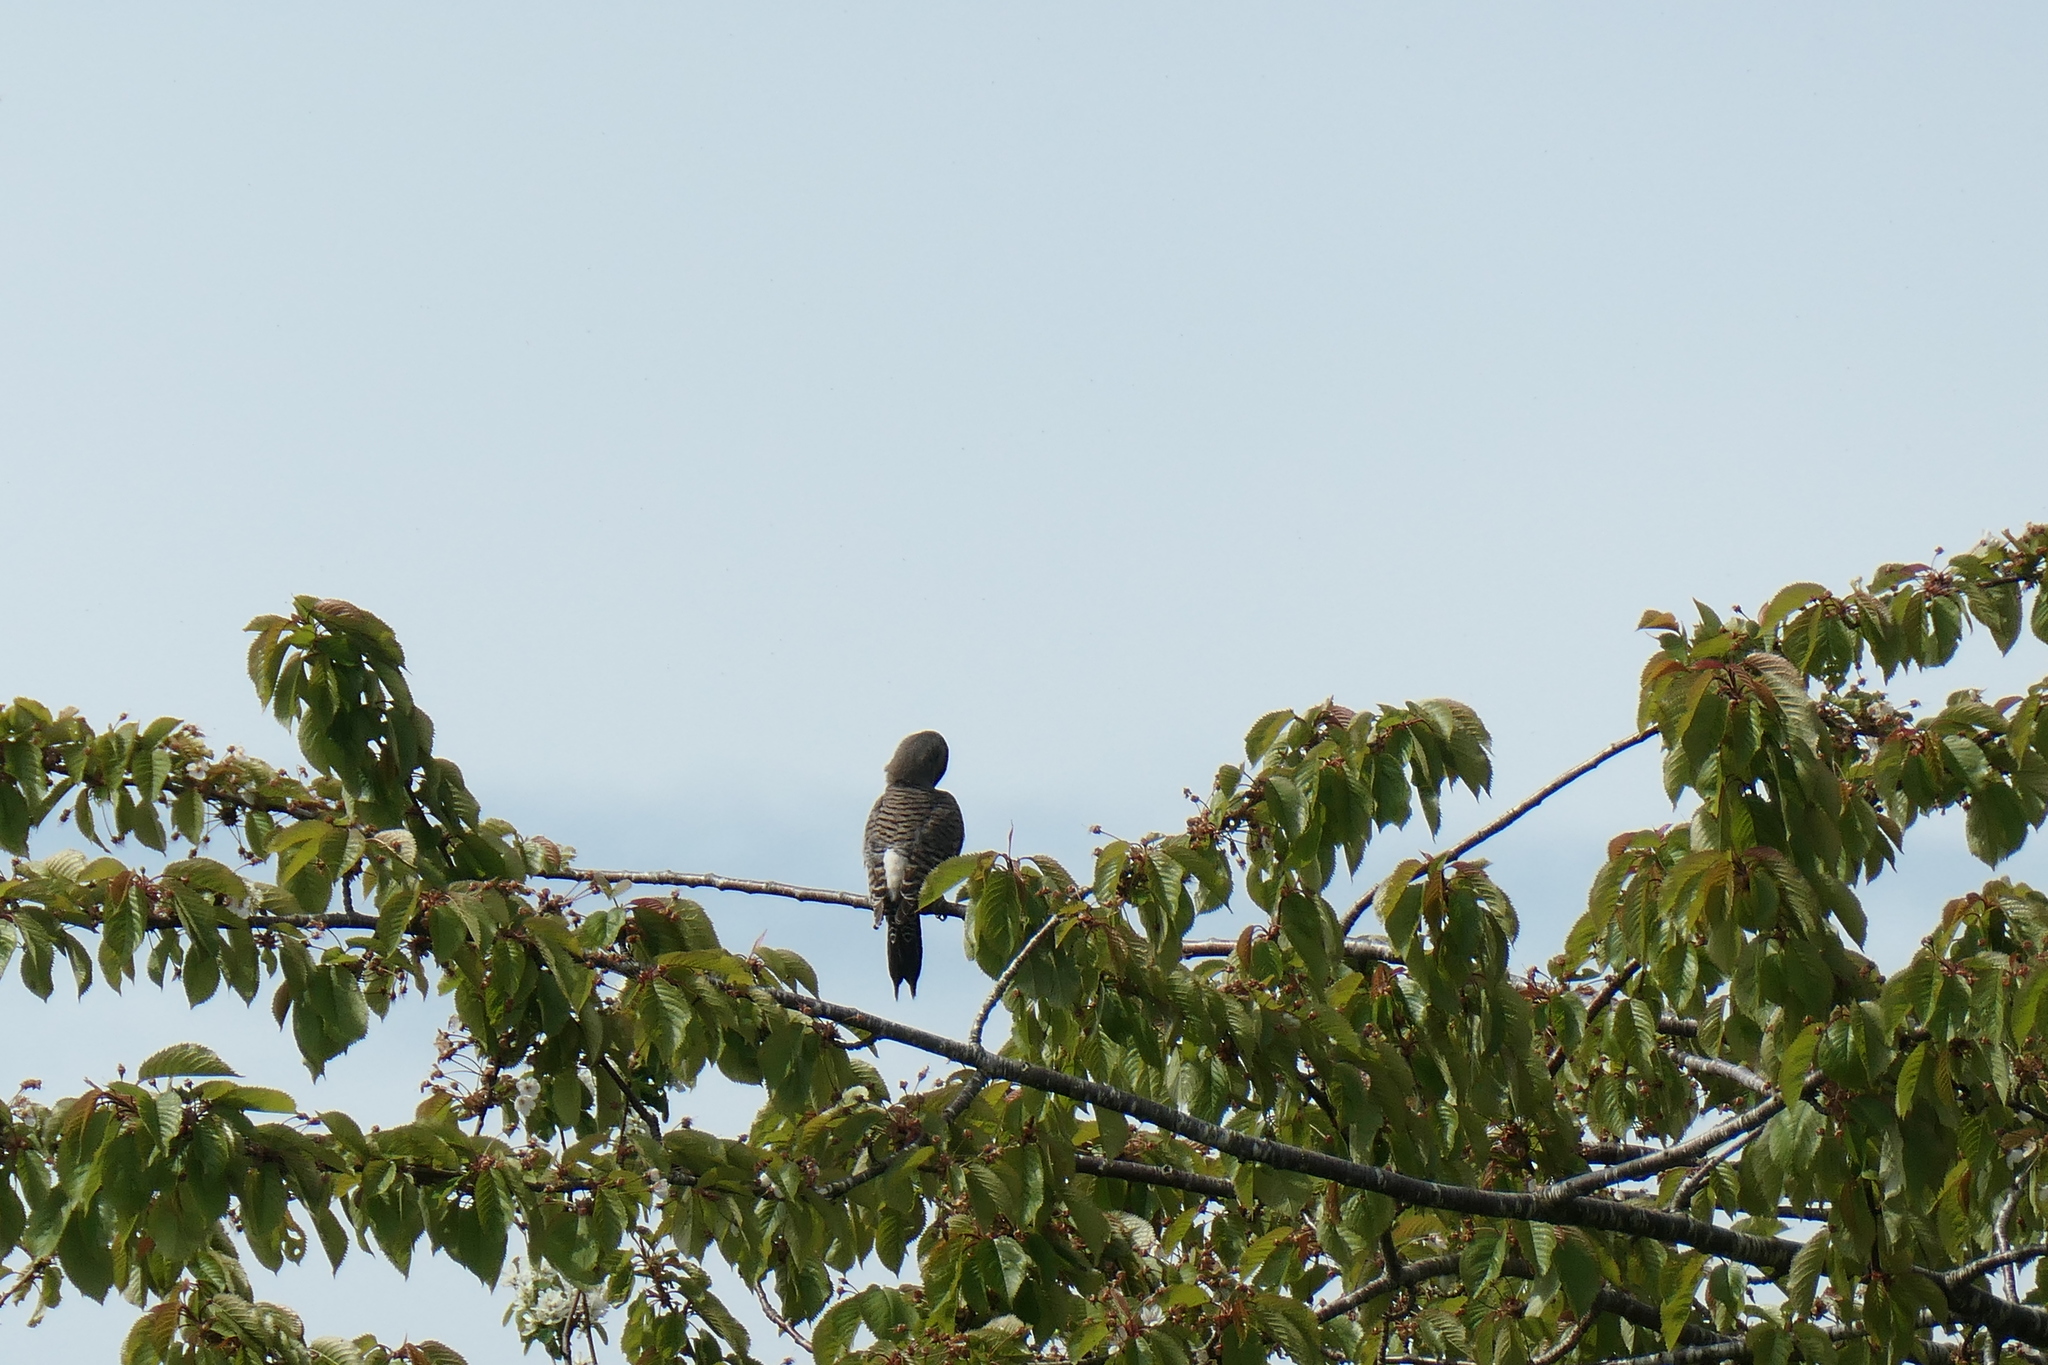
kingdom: Animalia
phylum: Chordata
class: Aves
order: Piciformes
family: Picidae
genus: Colaptes
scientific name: Colaptes auratus
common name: Northern flicker
